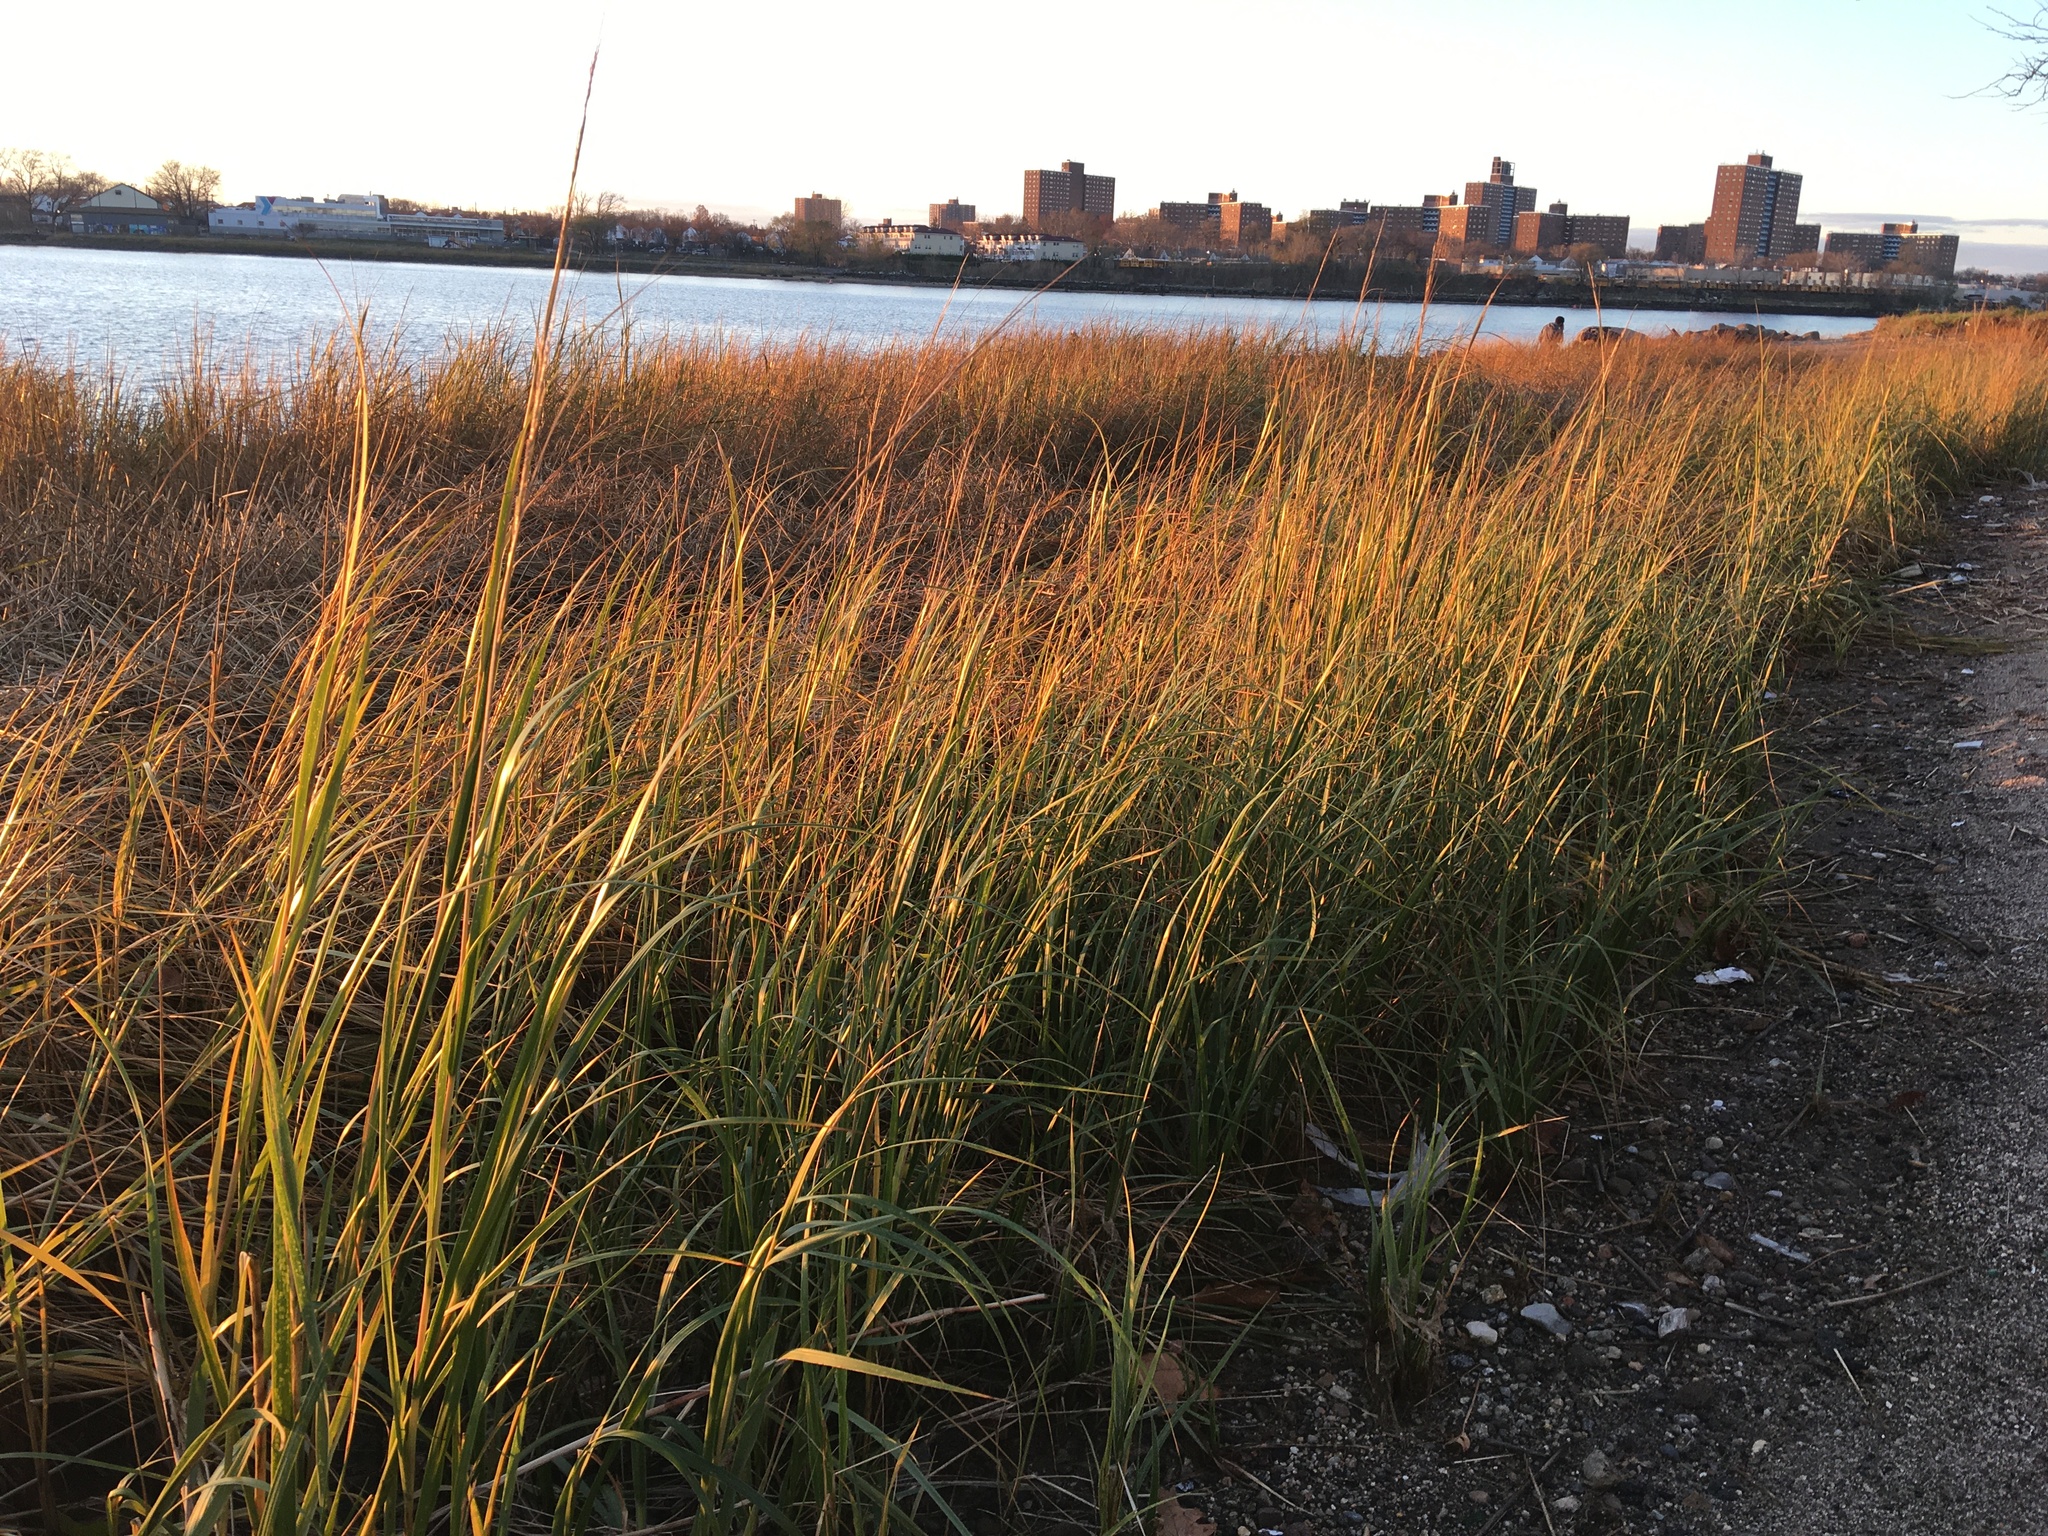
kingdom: Plantae
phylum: Tracheophyta
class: Liliopsida
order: Poales
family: Poaceae
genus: Sporobolus
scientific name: Sporobolus alterniflorus
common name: Atlantic cordgrass
